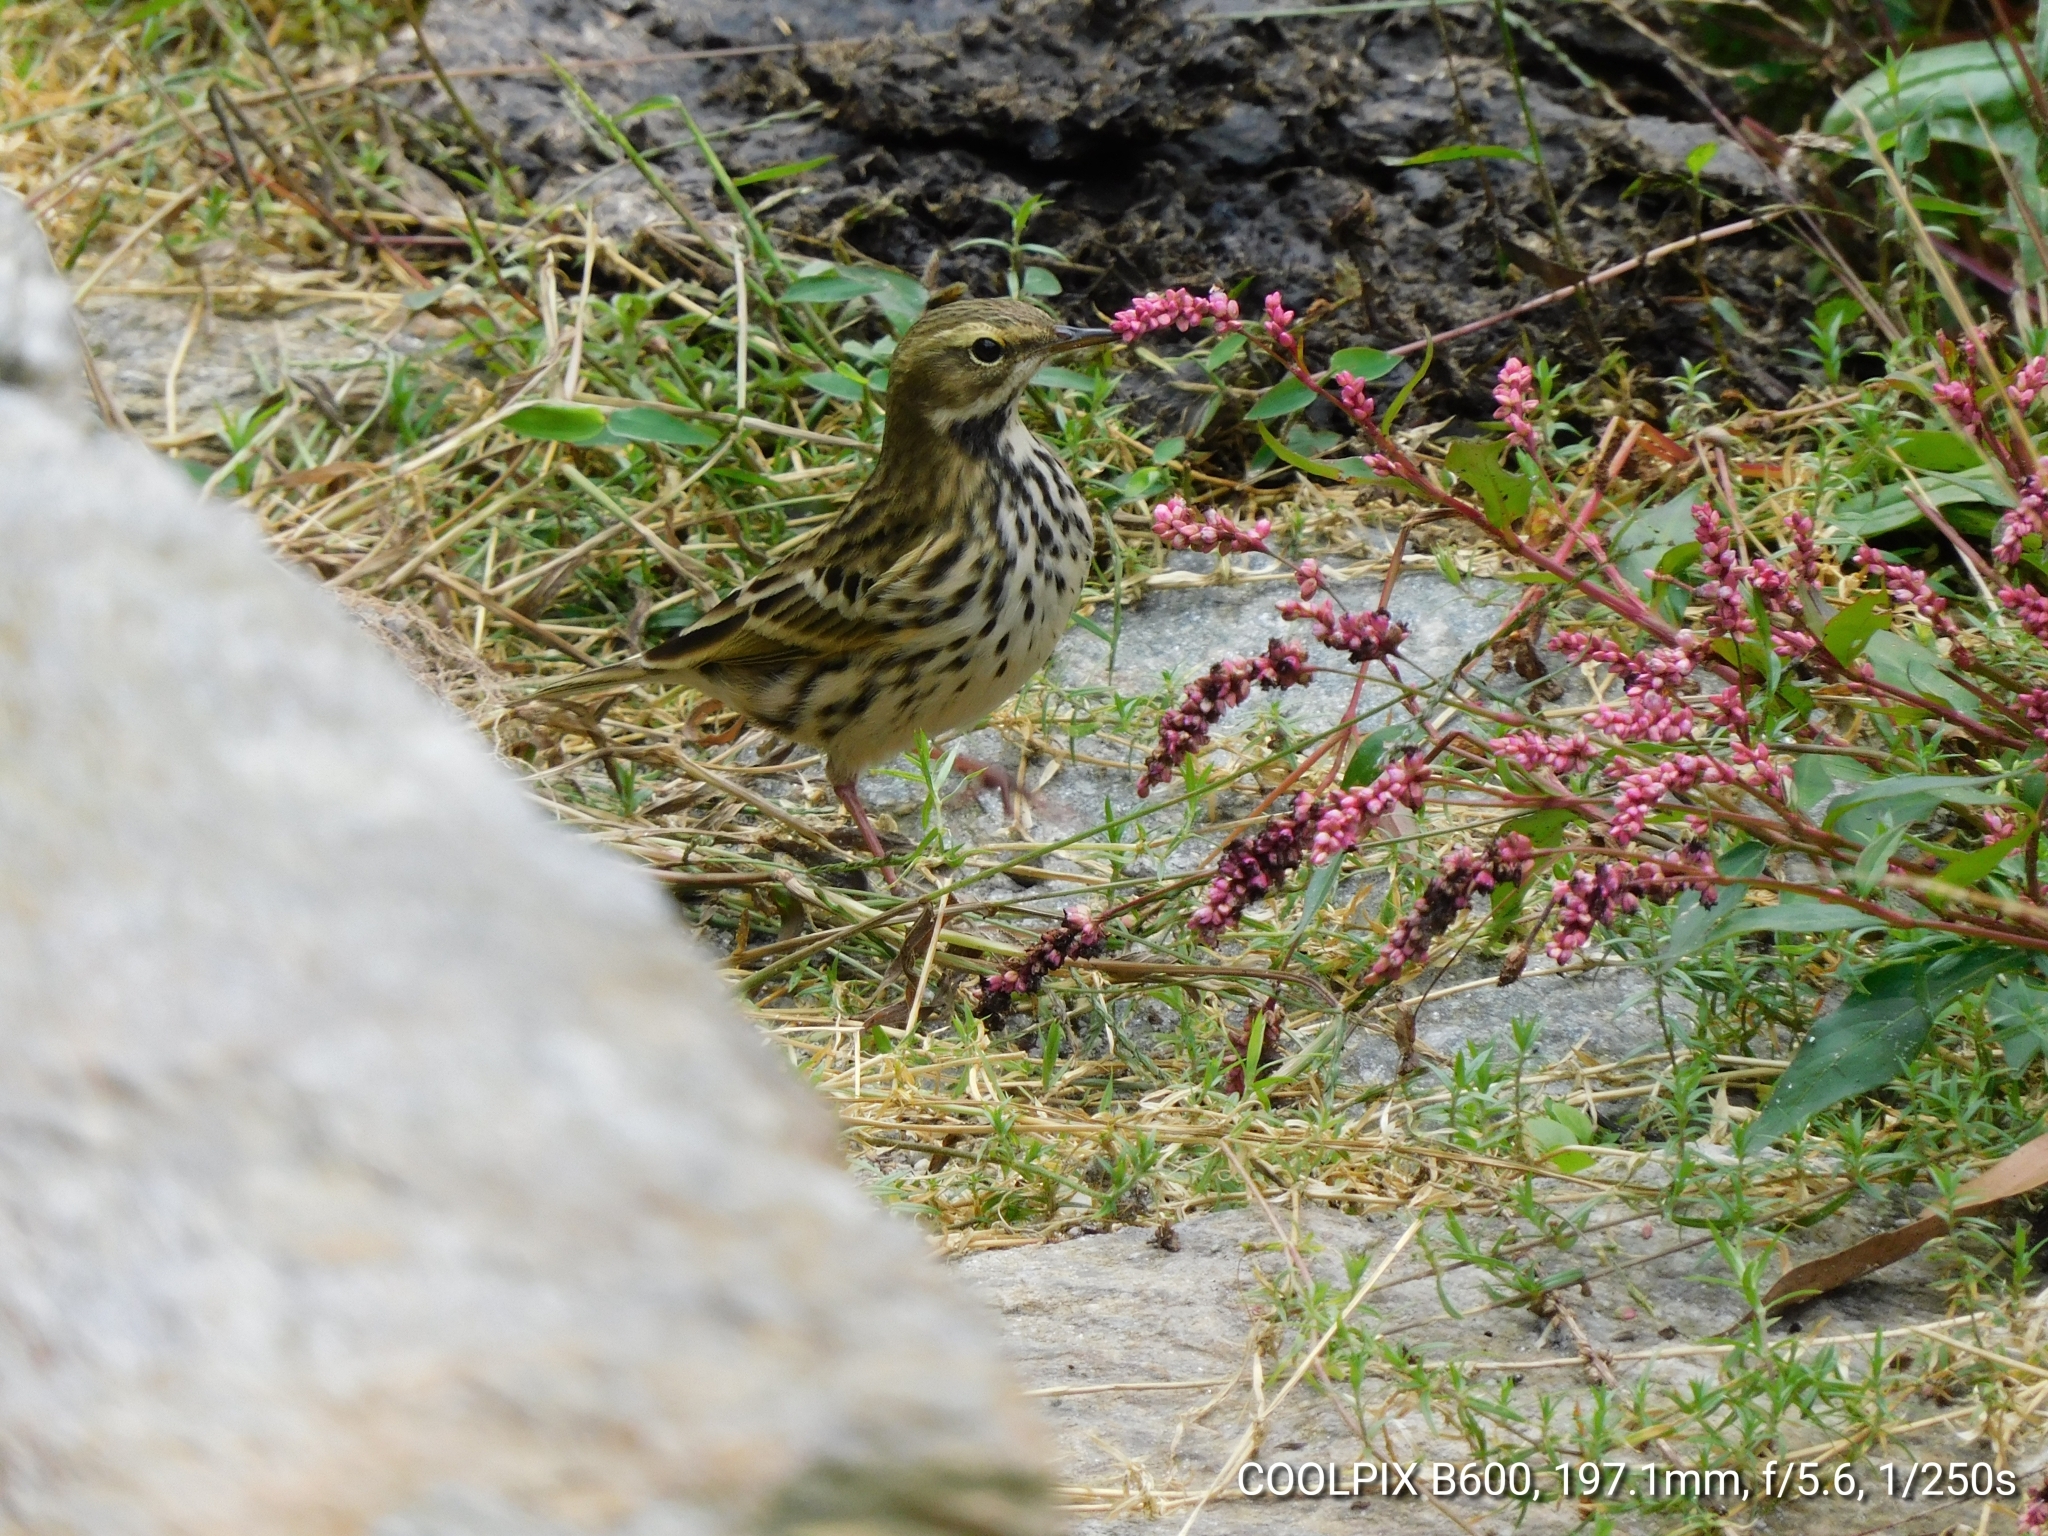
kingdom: Animalia
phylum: Chordata
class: Aves
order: Passeriformes
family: Motacillidae
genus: Anthus
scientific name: Anthus roseatus
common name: Rosy pipit
